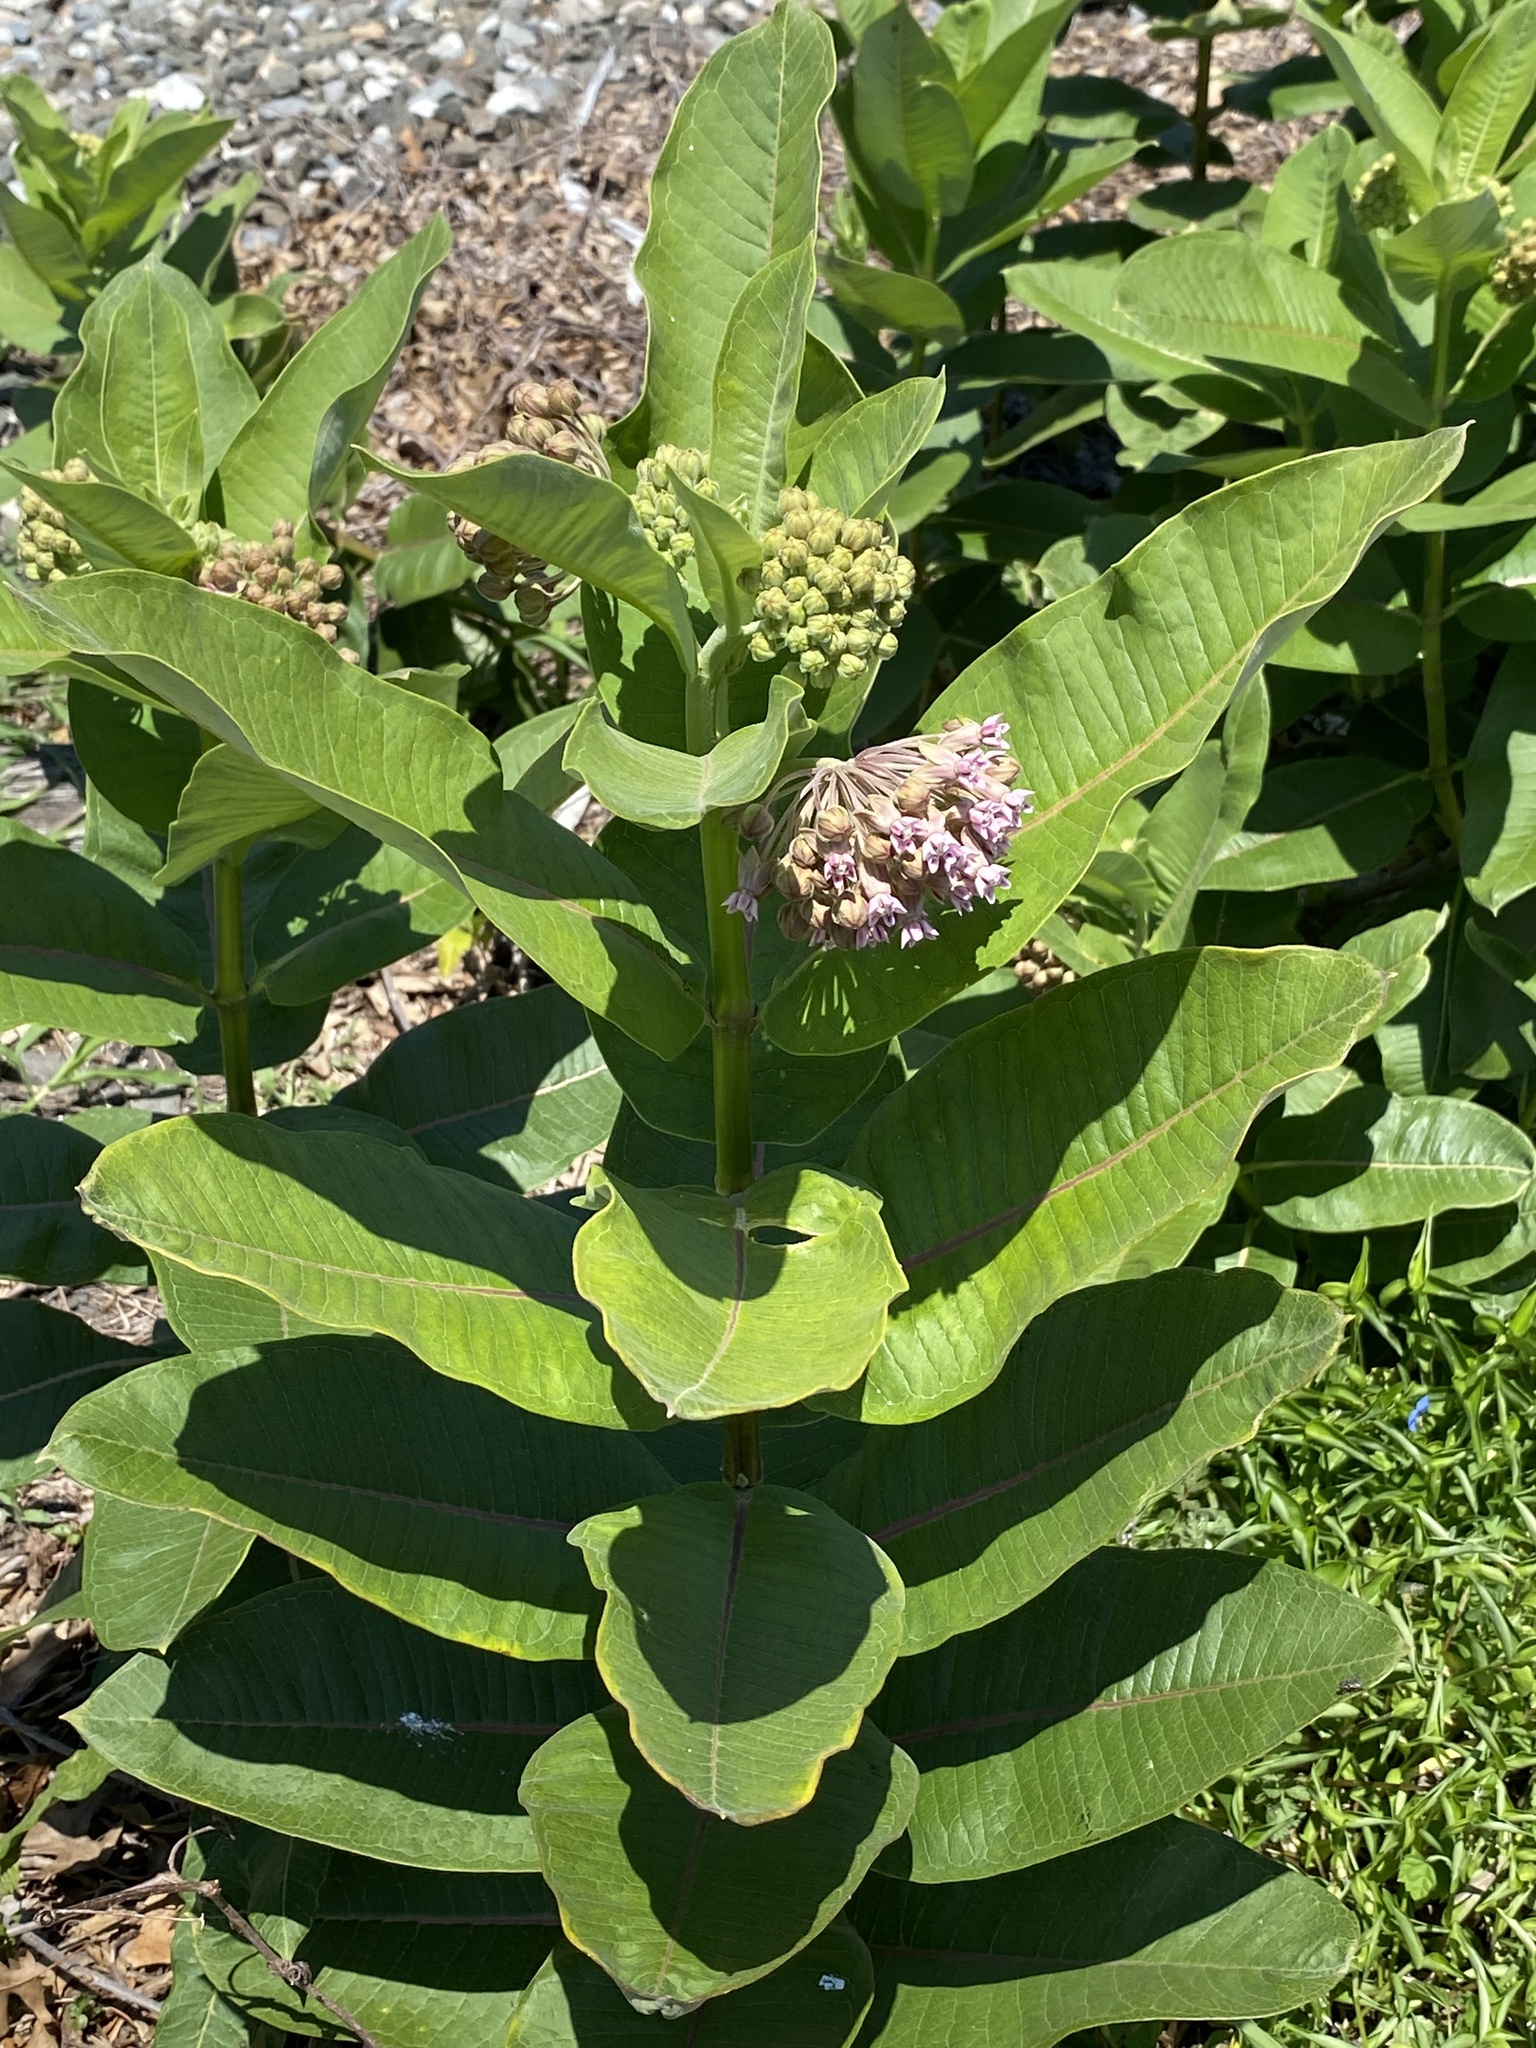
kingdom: Plantae
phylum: Tracheophyta
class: Magnoliopsida
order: Gentianales
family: Apocynaceae
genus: Asclepias
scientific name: Asclepias syriaca
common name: Common milkweed
